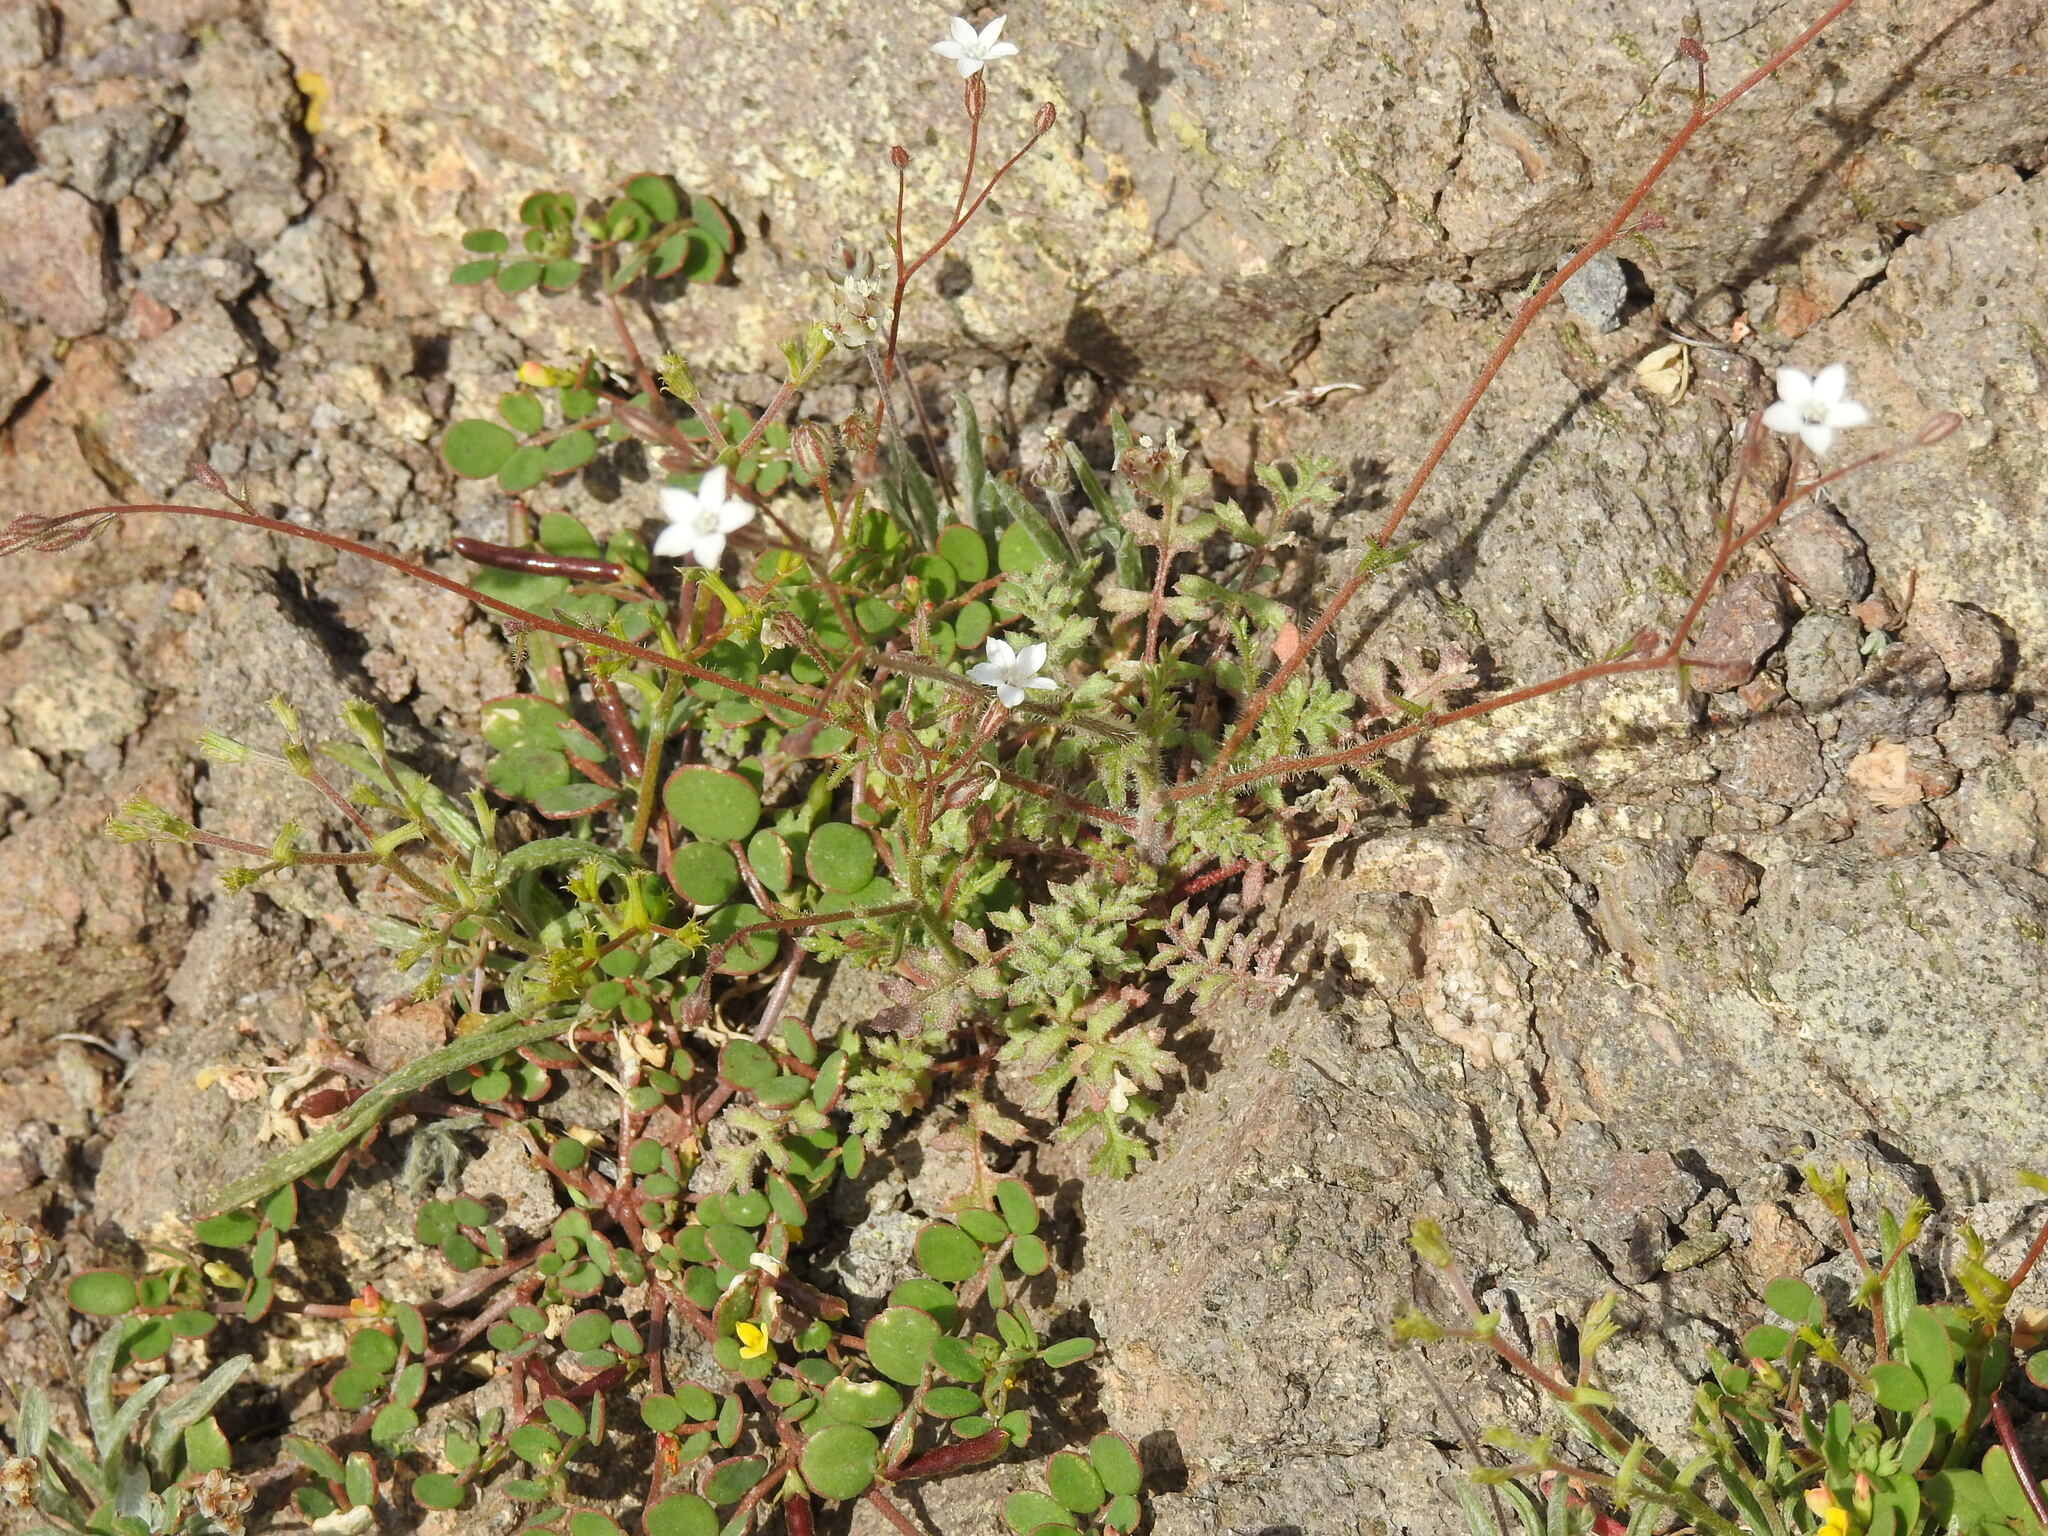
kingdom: Plantae
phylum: Tracheophyta
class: Magnoliopsida
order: Ericales
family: Polemoniaceae
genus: Gilia
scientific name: Gilia stellata
